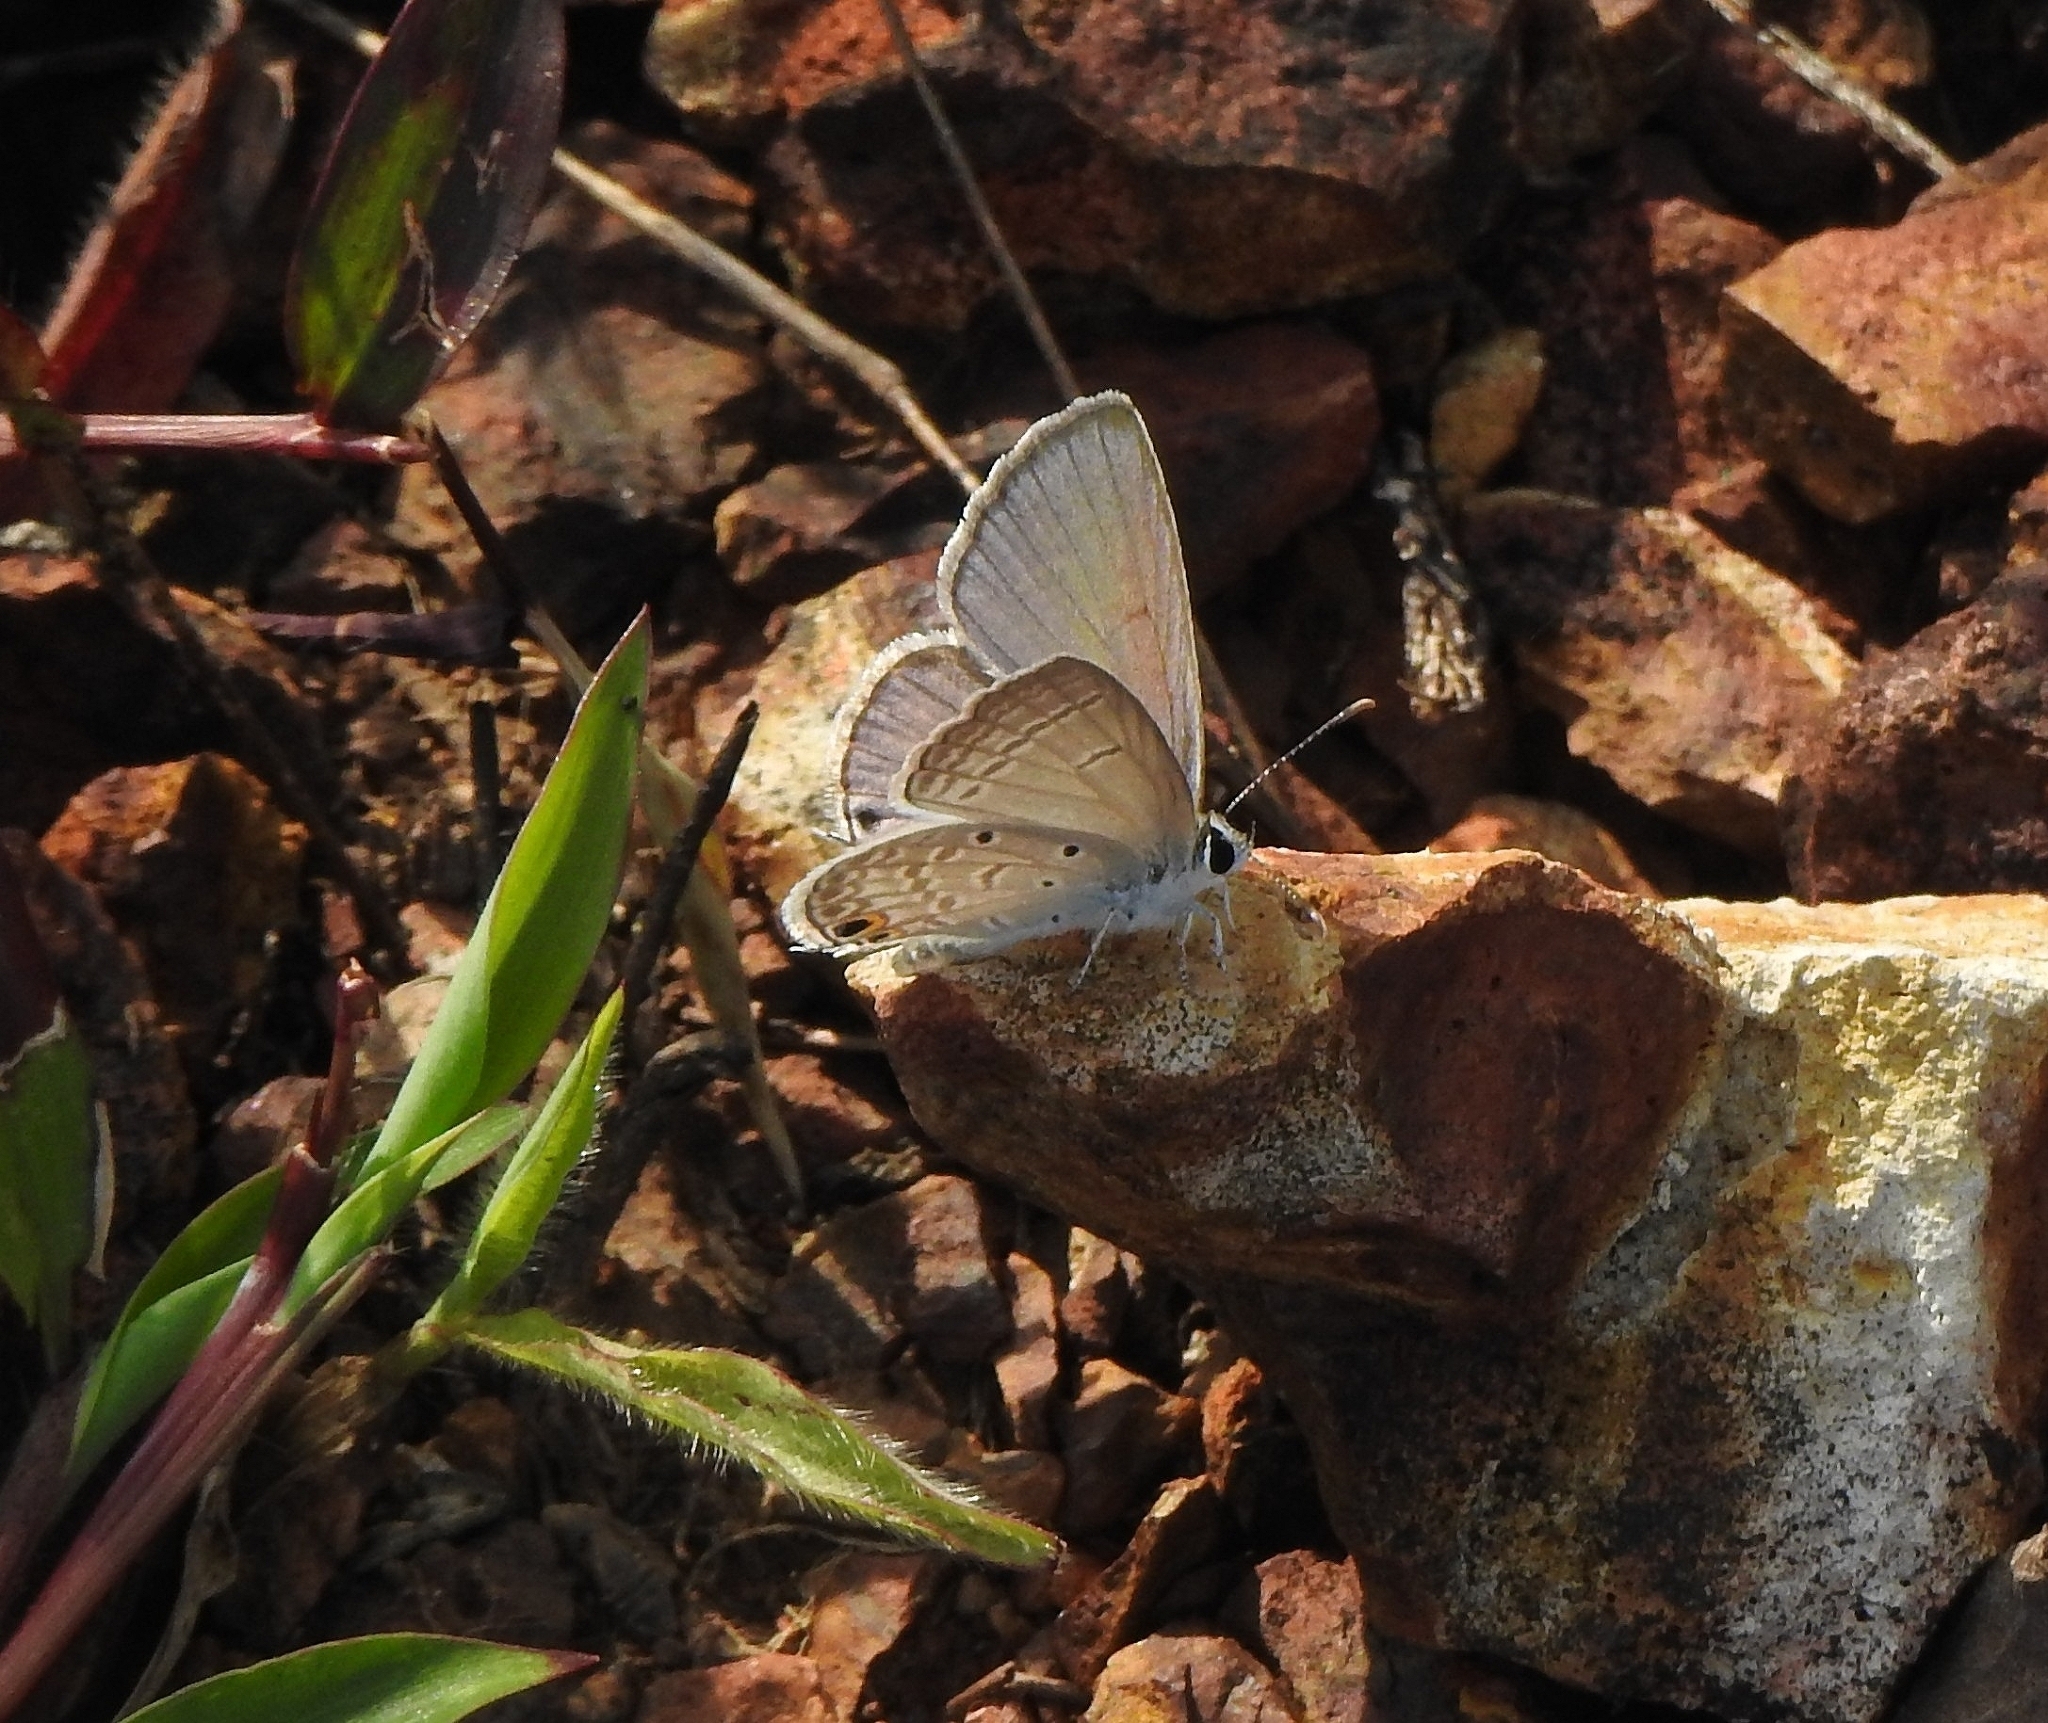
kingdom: Animalia
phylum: Arthropoda
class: Insecta
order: Lepidoptera
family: Lycaenidae
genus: Euchrysops
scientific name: Euchrysops cnejus
